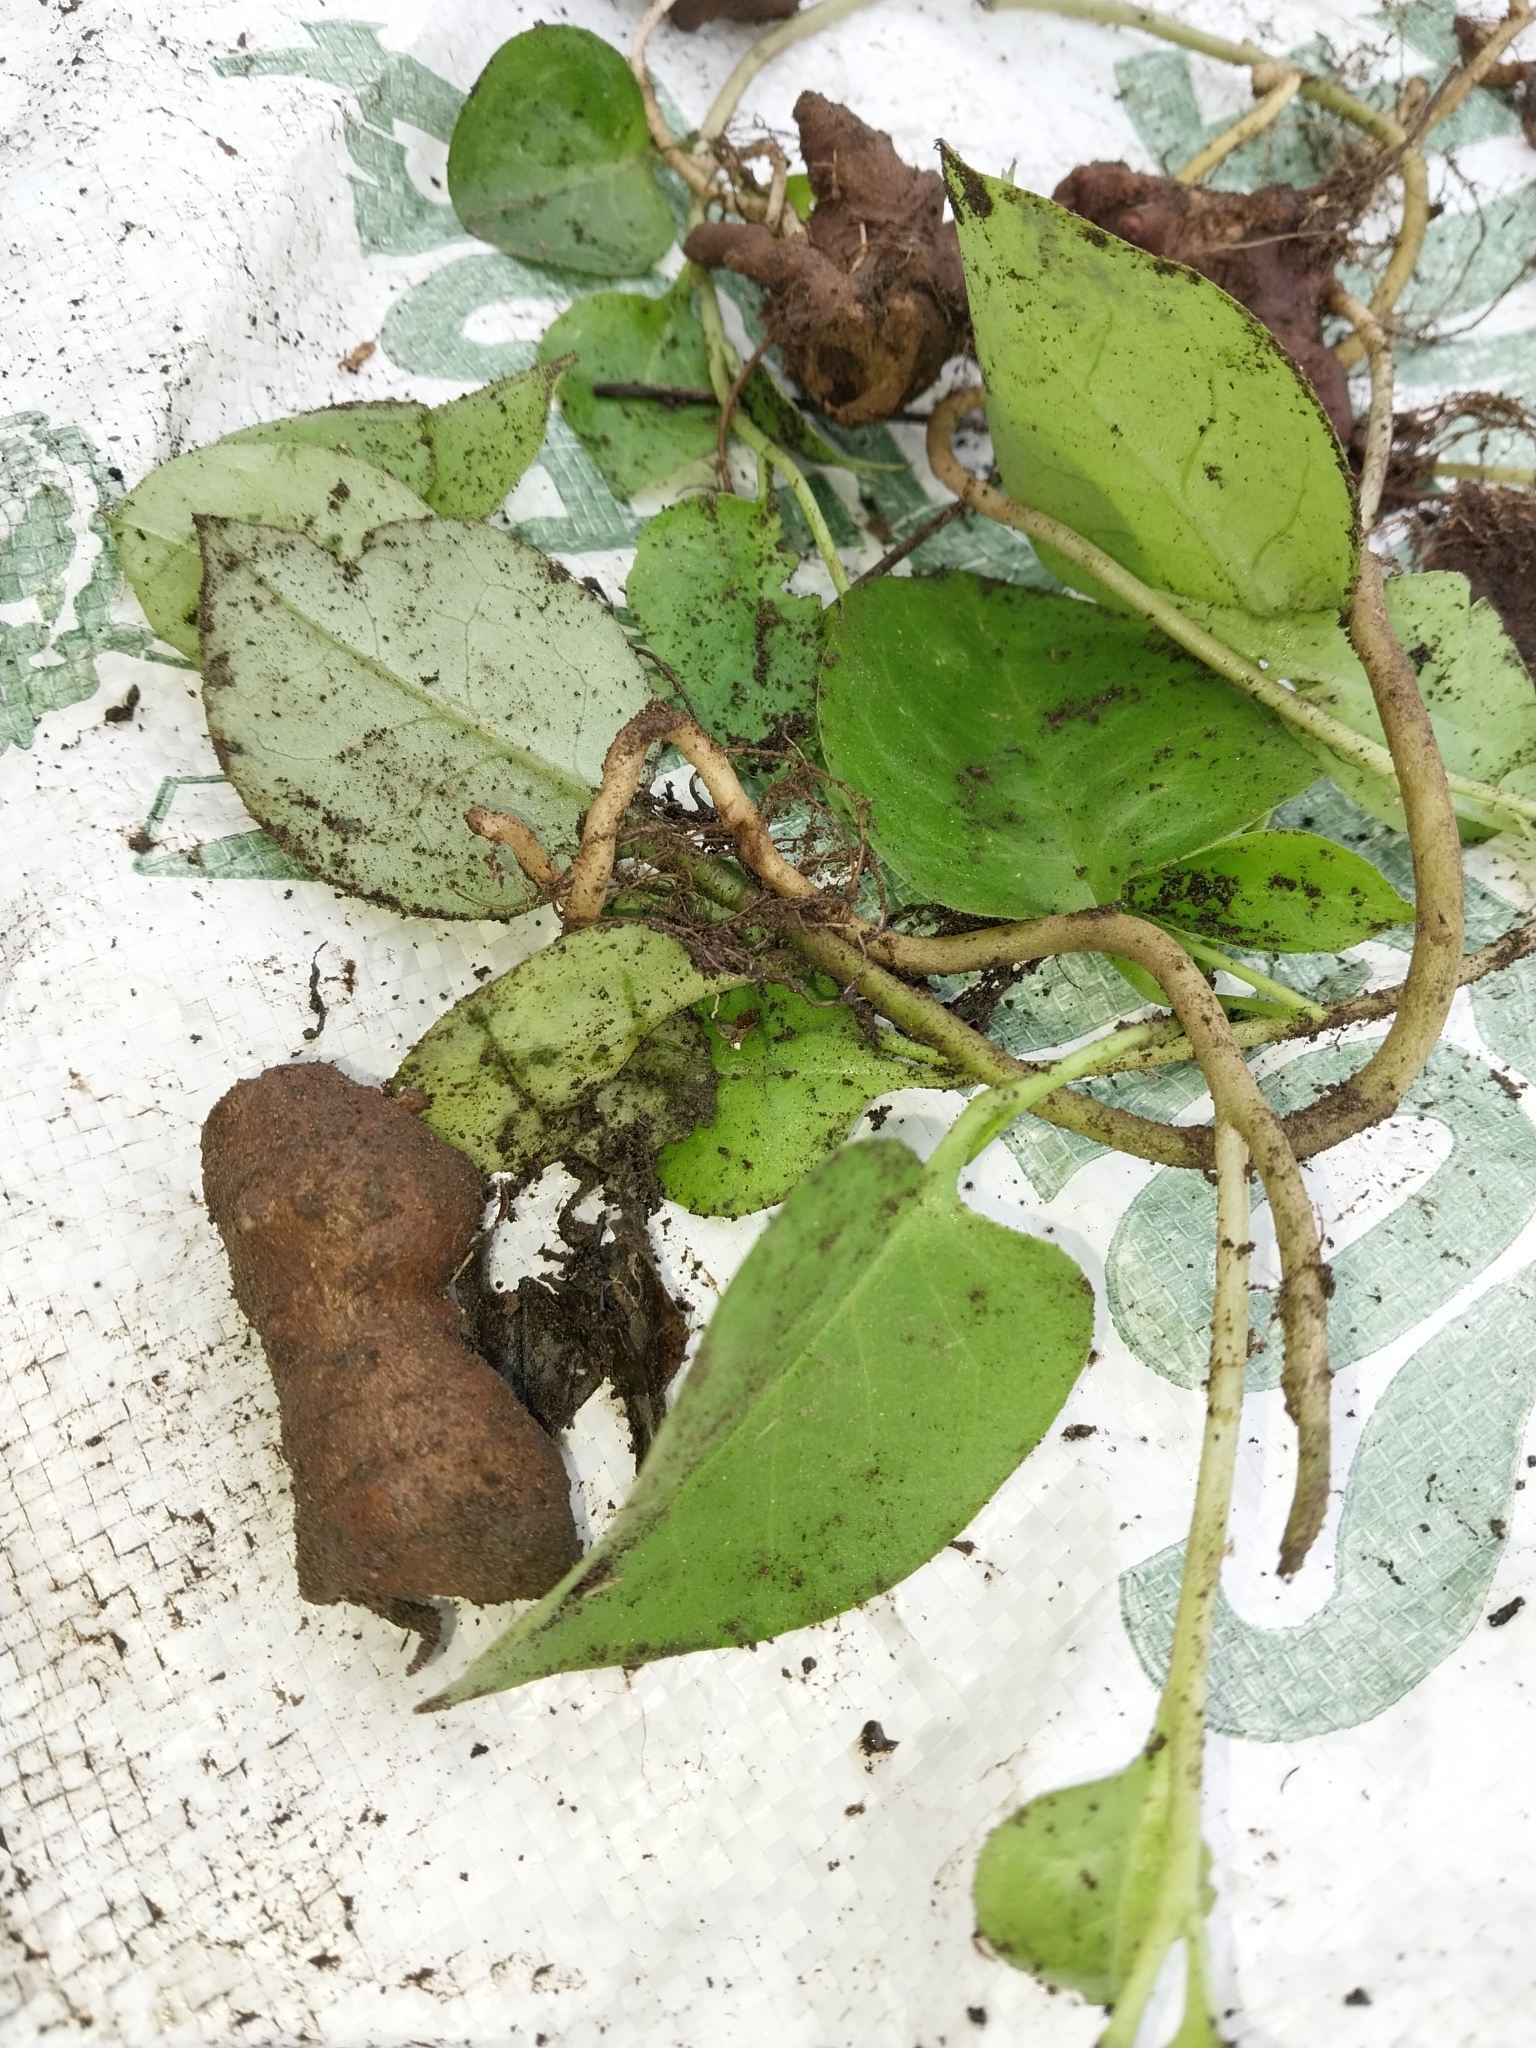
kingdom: Plantae
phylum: Tracheophyta
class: Magnoliopsida
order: Caryophyllales
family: Basellaceae
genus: Anredera
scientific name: Anredera cordifolia
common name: Heartleaf madeiravine
